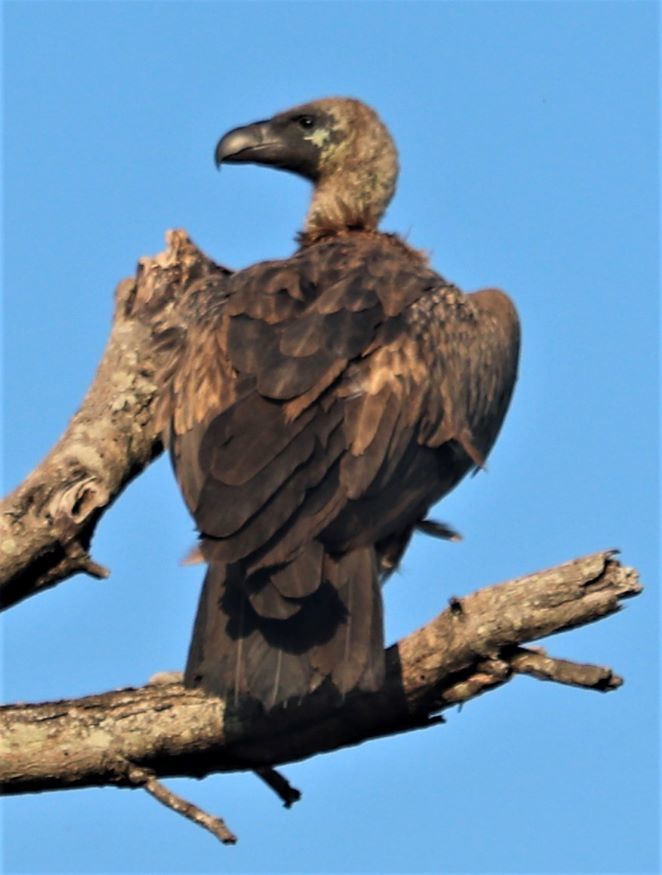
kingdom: Animalia
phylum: Chordata
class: Aves
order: Accipitriformes
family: Accipitridae
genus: Gyps
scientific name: Gyps africanus
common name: White-backed vulture
